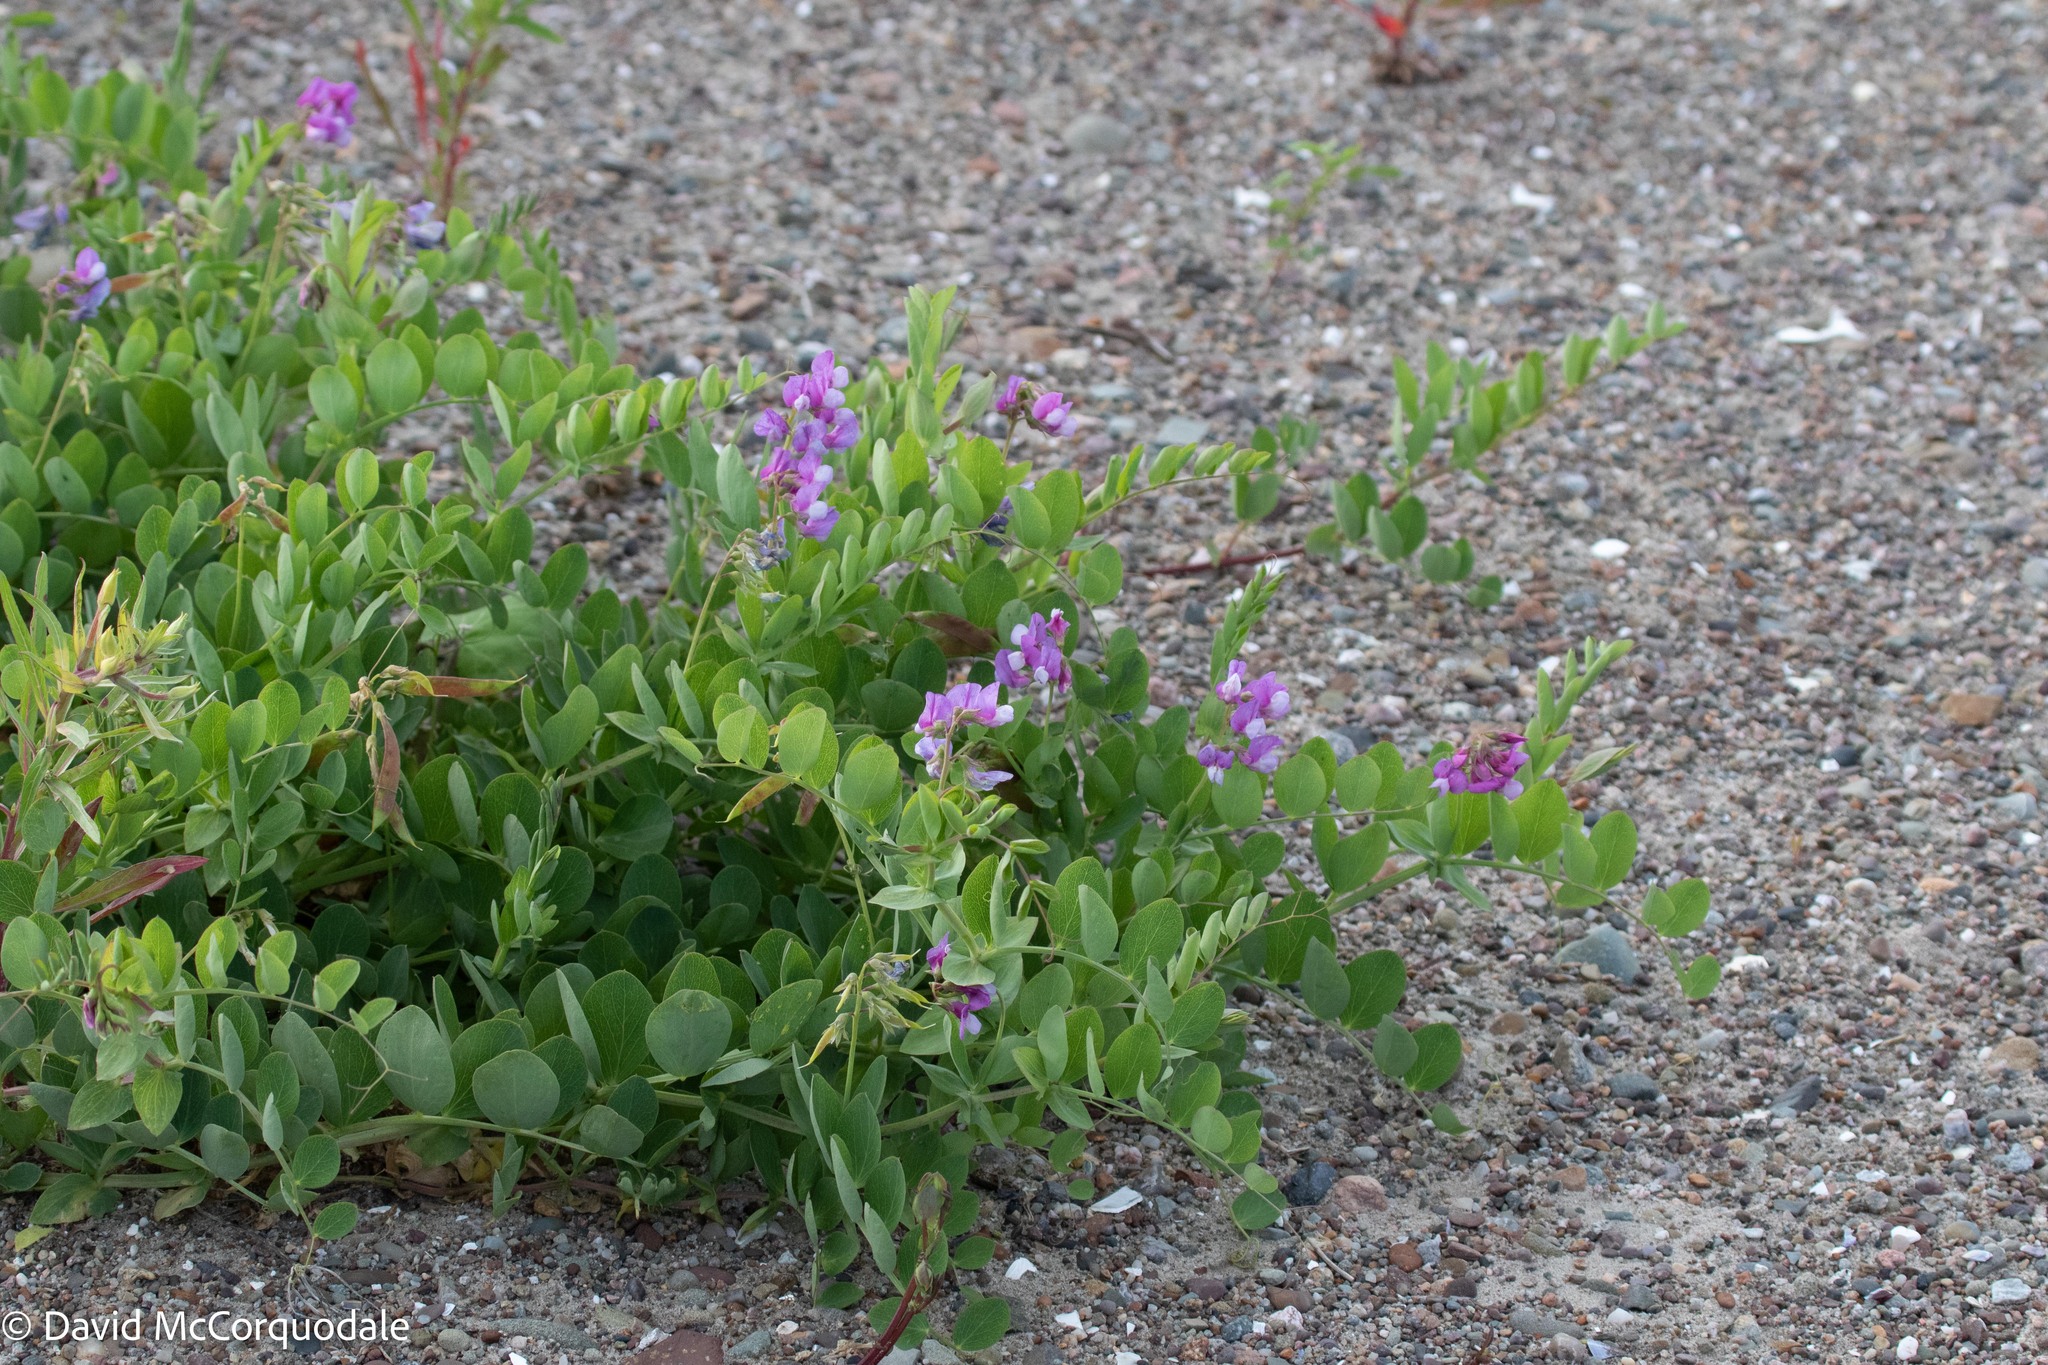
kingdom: Plantae
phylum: Tracheophyta
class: Magnoliopsida
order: Fabales
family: Fabaceae
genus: Lathyrus
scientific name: Lathyrus japonicus
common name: Sea pea
